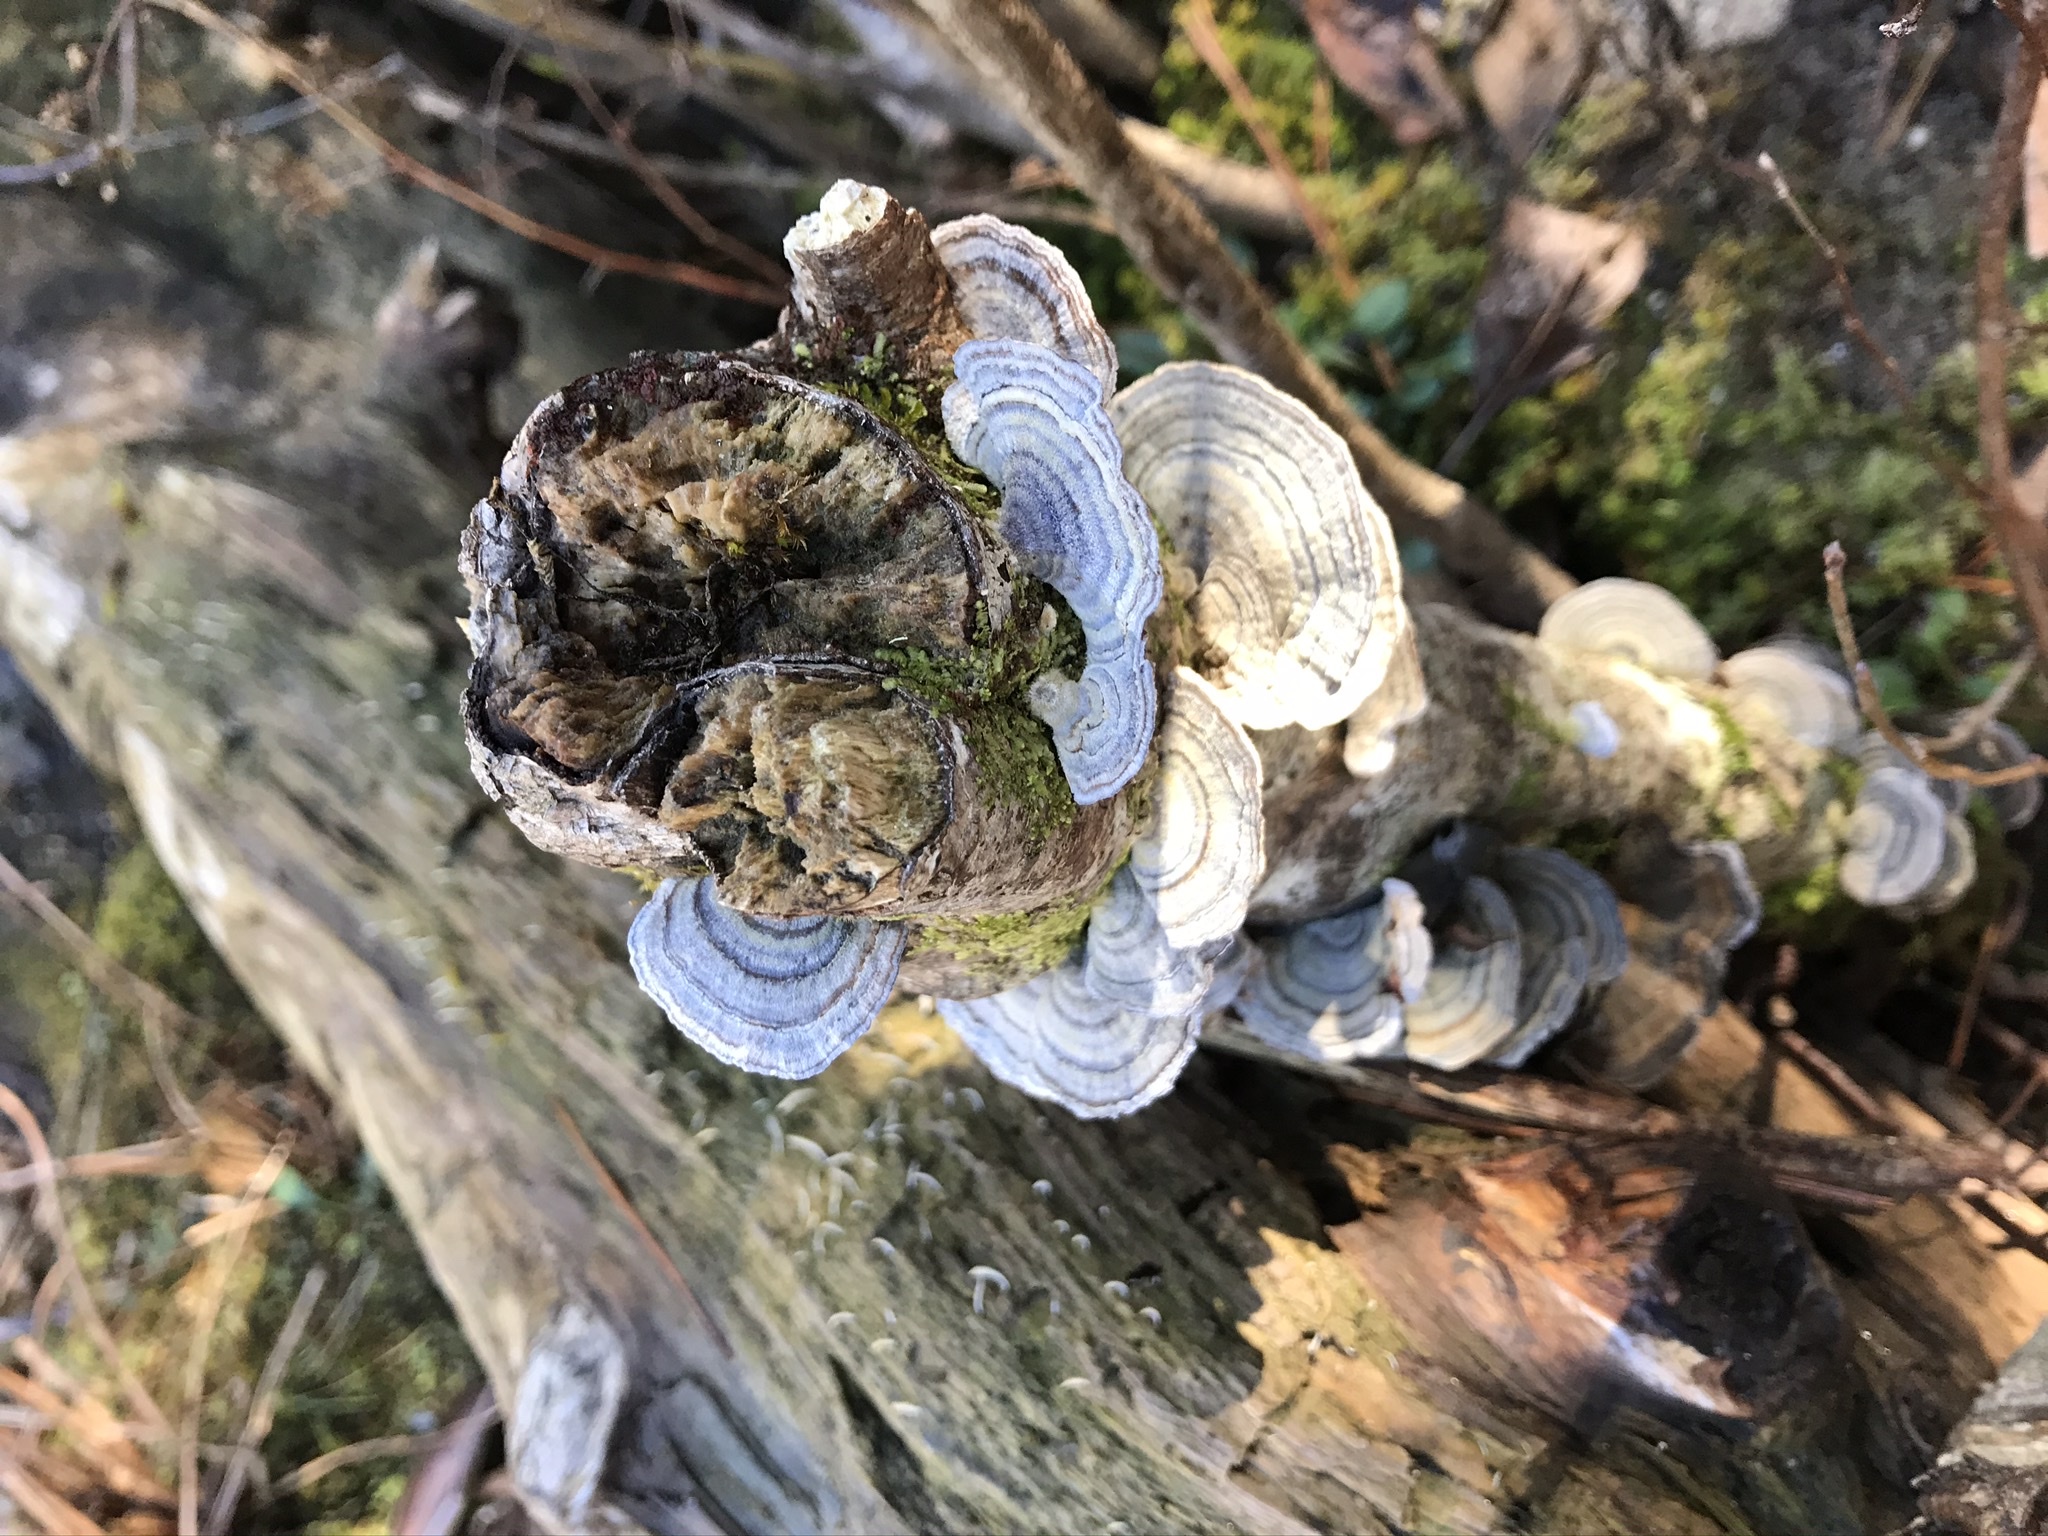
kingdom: Fungi
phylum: Basidiomycota
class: Agaricomycetes
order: Polyporales
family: Polyporaceae
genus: Trametes
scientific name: Trametes versicolor
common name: Turkeytail
